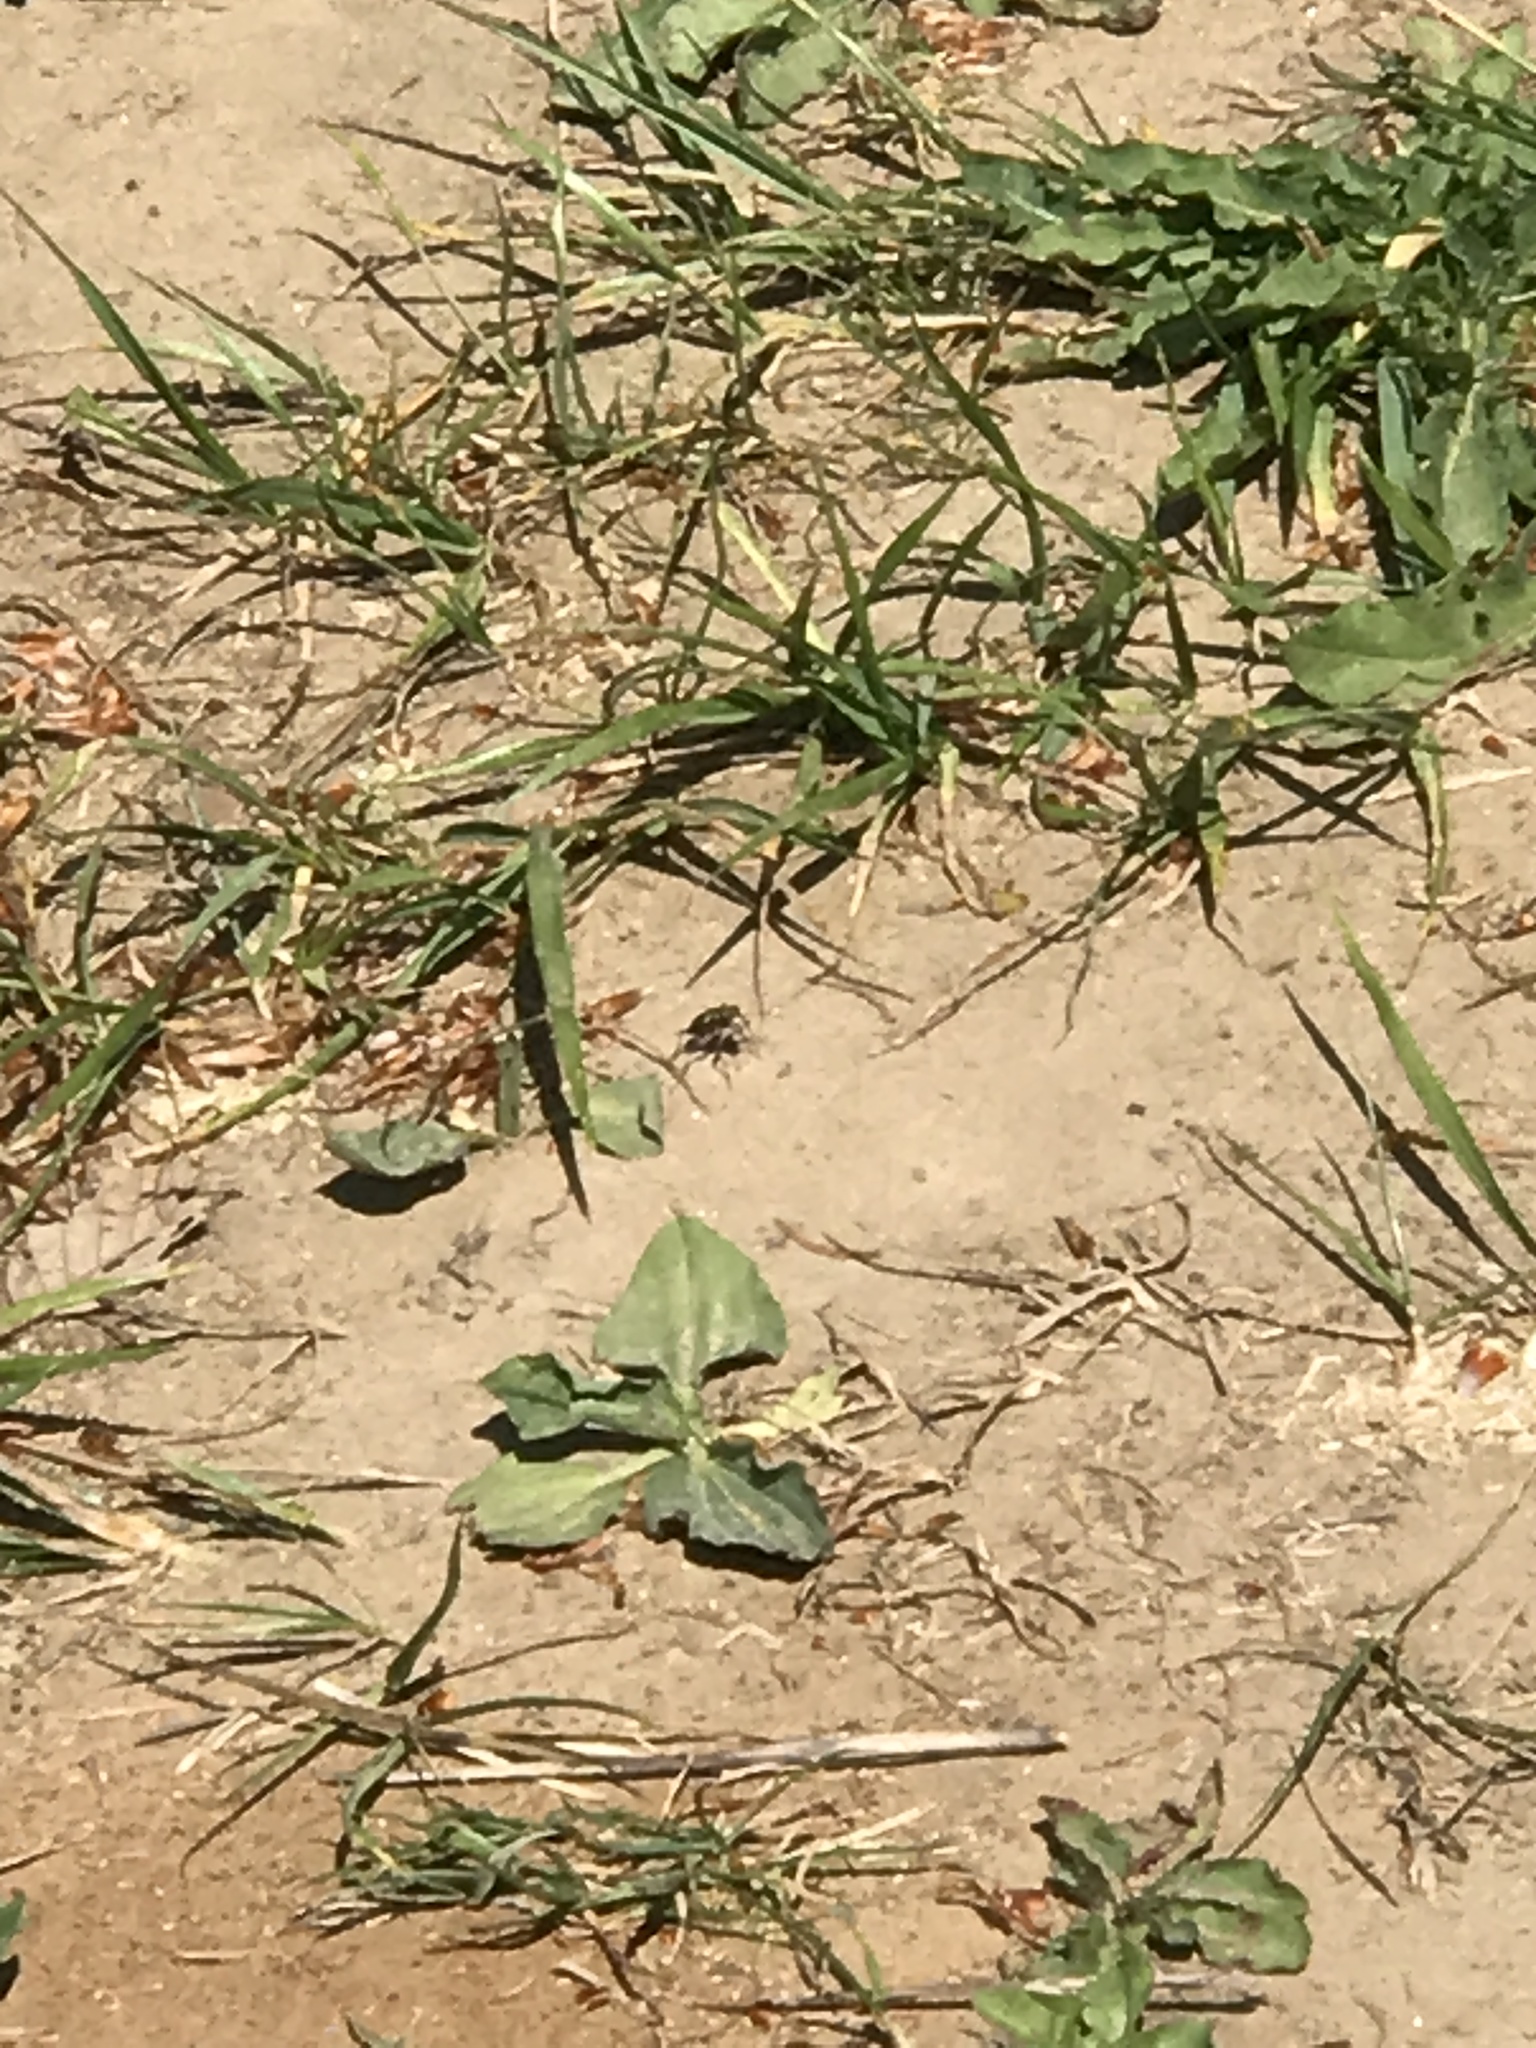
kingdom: Animalia
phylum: Arthropoda
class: Insecta
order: Coleoptera
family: Carabidae
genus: Cicindela
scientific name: Cicindela
